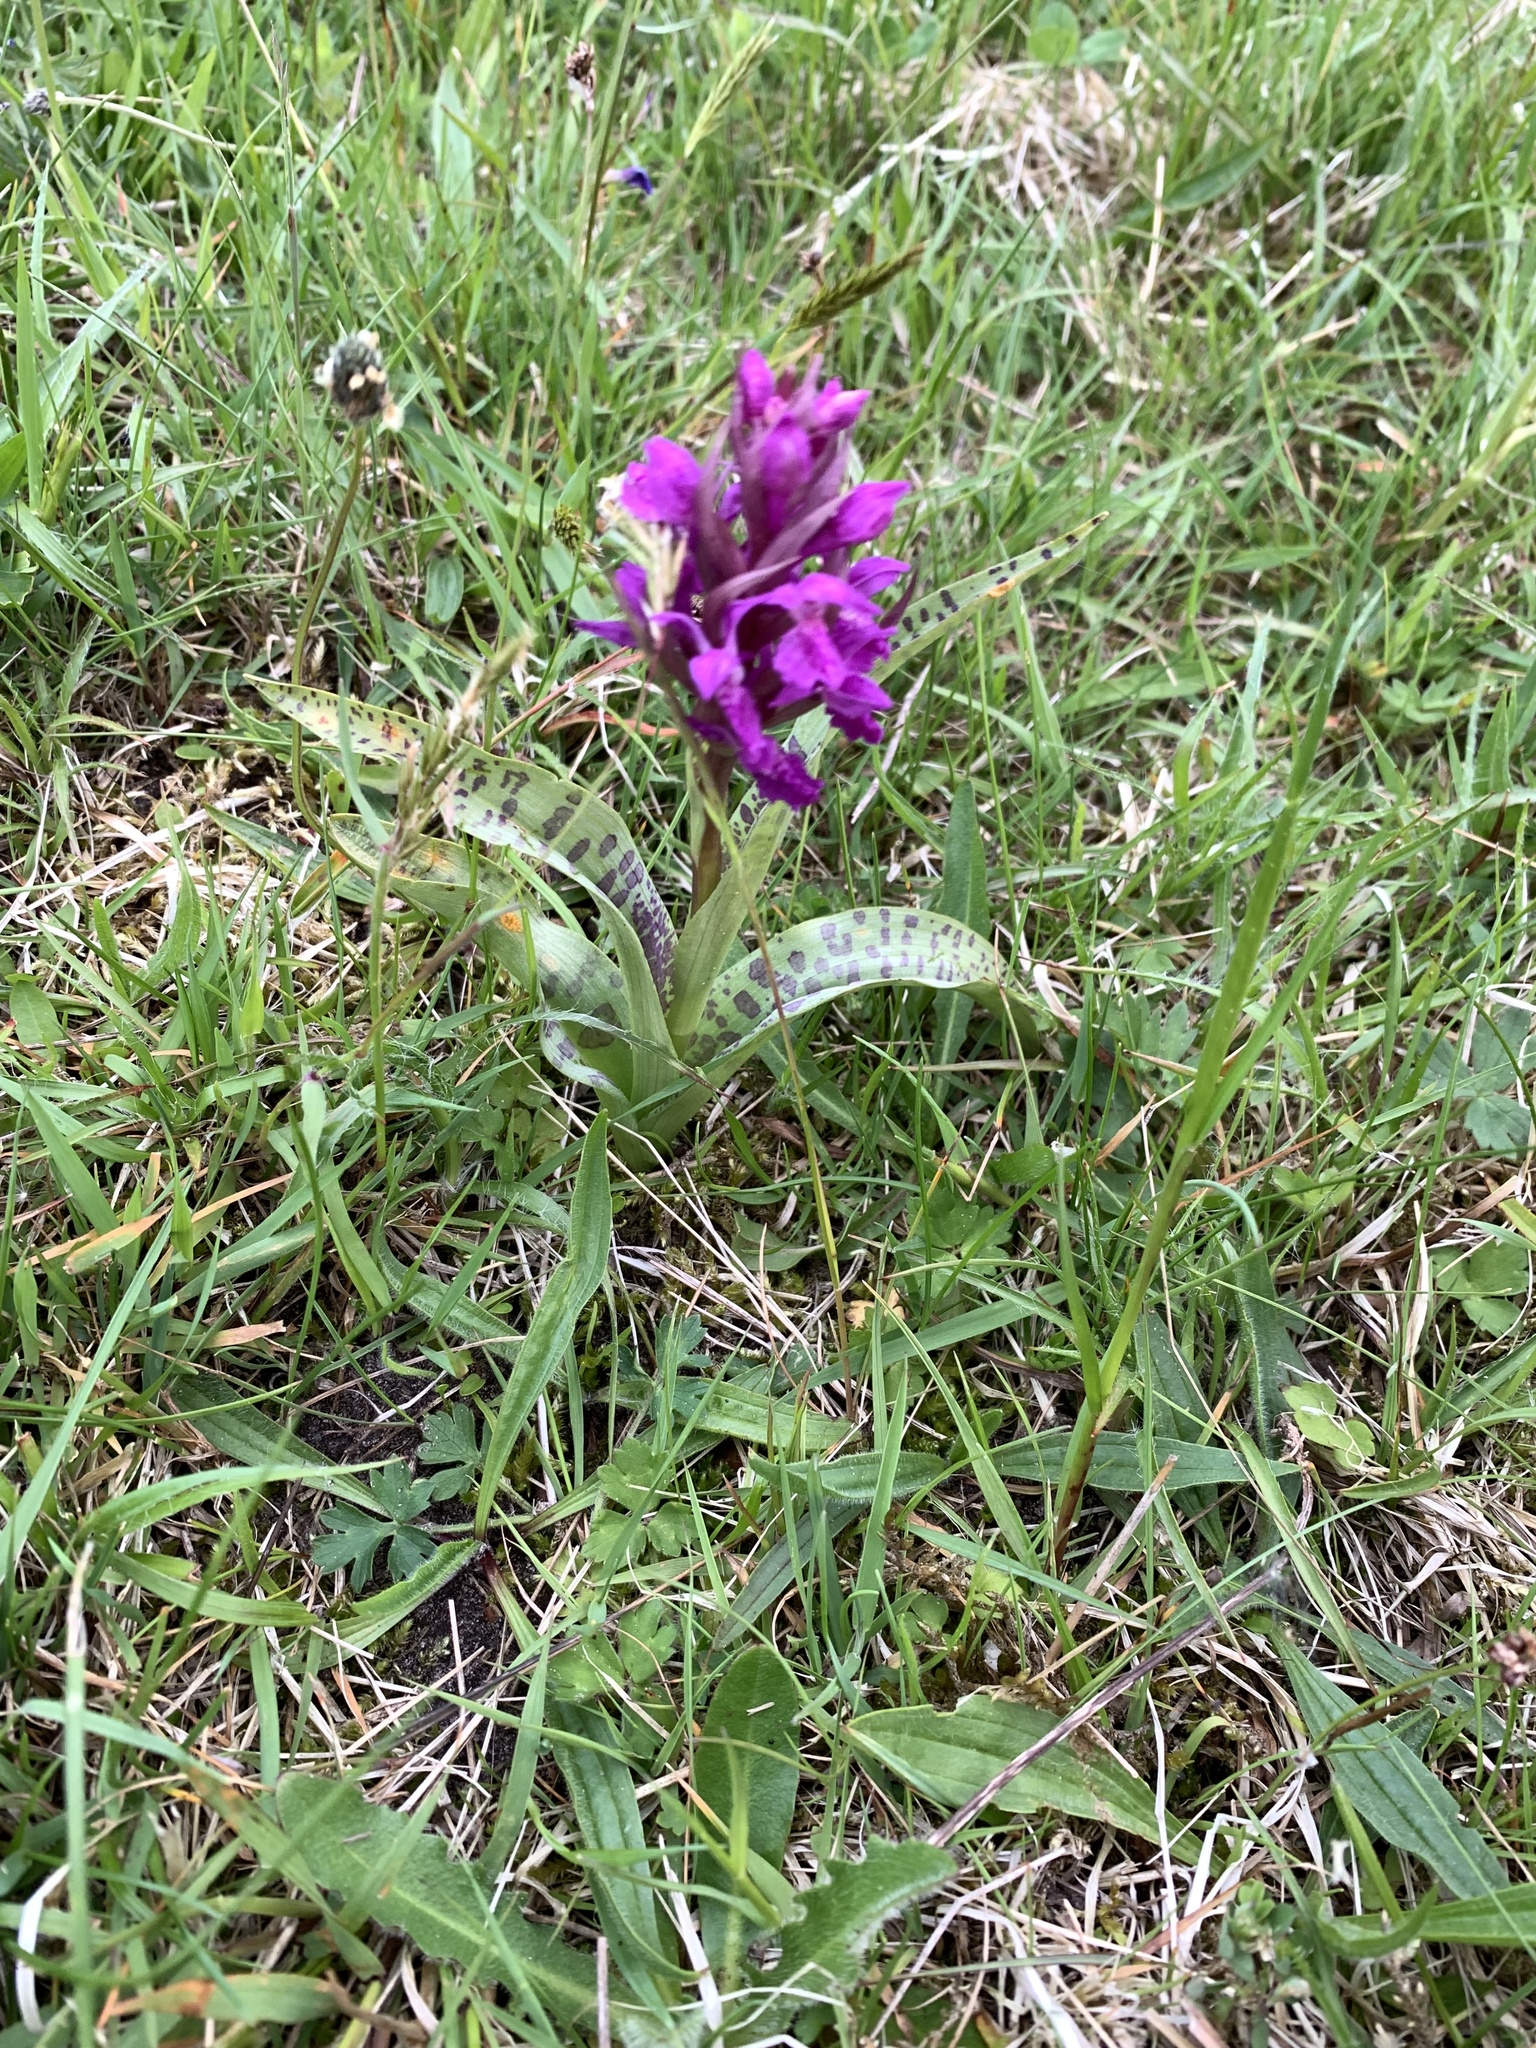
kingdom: Plantae
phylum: Tracheophyta
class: Liliopsida
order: Asparagales
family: Orchidaceae
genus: Dactylorhiza
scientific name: Dactylorhiza majalis
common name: Marsh orchid
